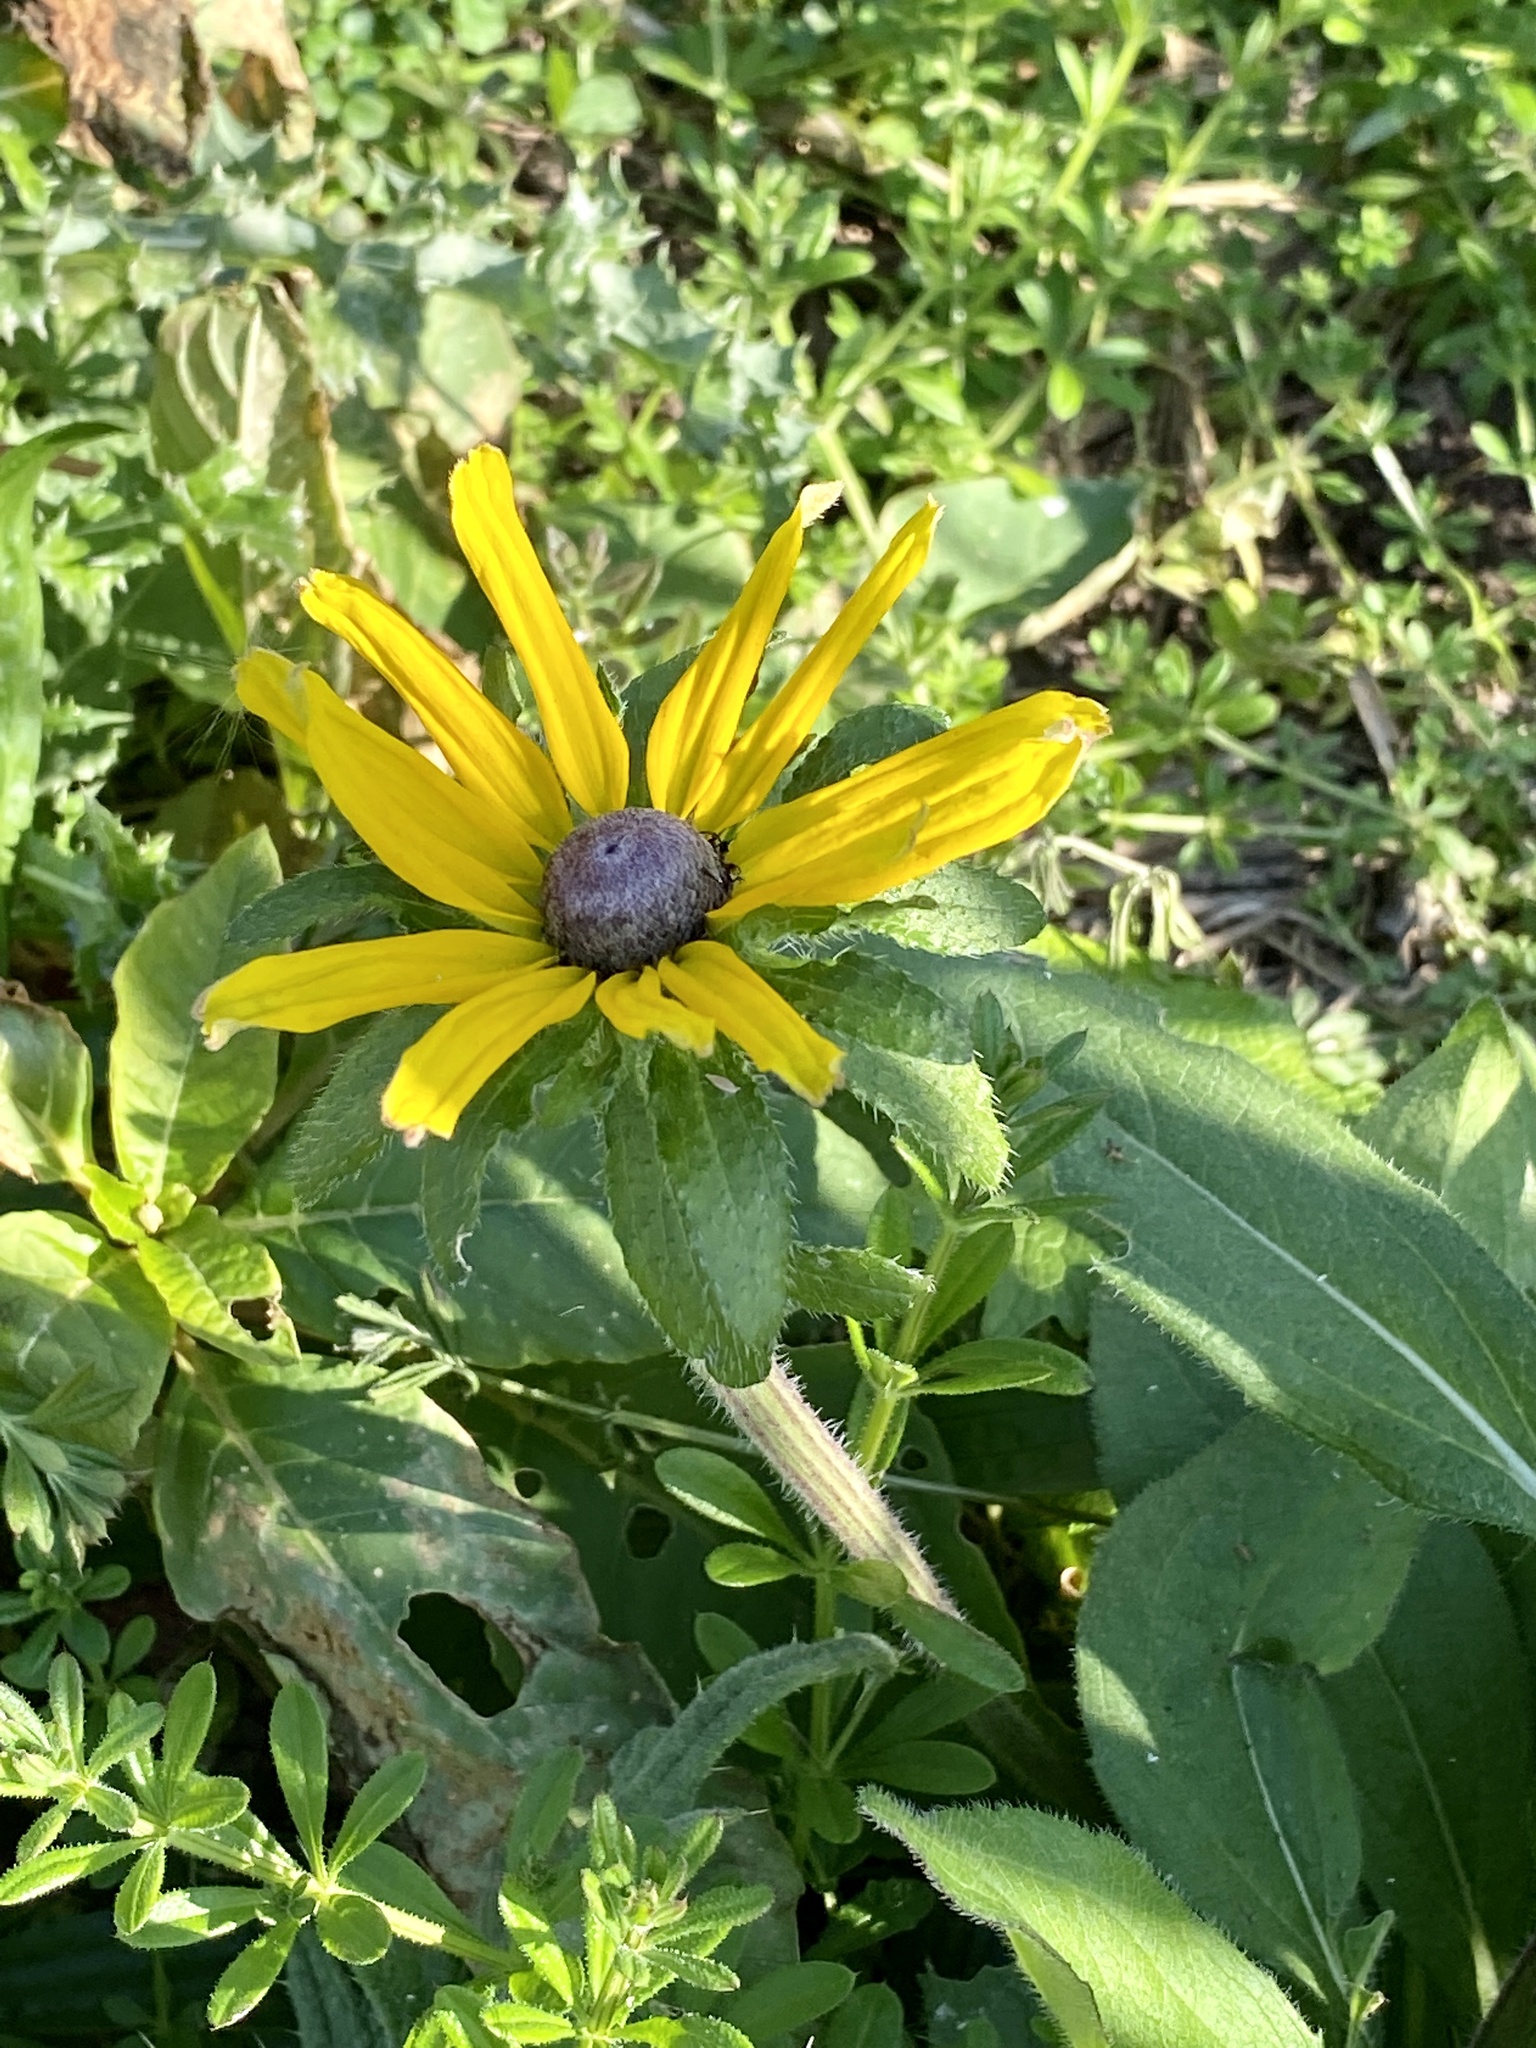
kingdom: Plantae
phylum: Tracheophyta
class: Magnoliopsida
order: Asterales
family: Asteraceae
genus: Rudbeckia
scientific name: Rudbeckia hirta
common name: Black-eyed-susan
